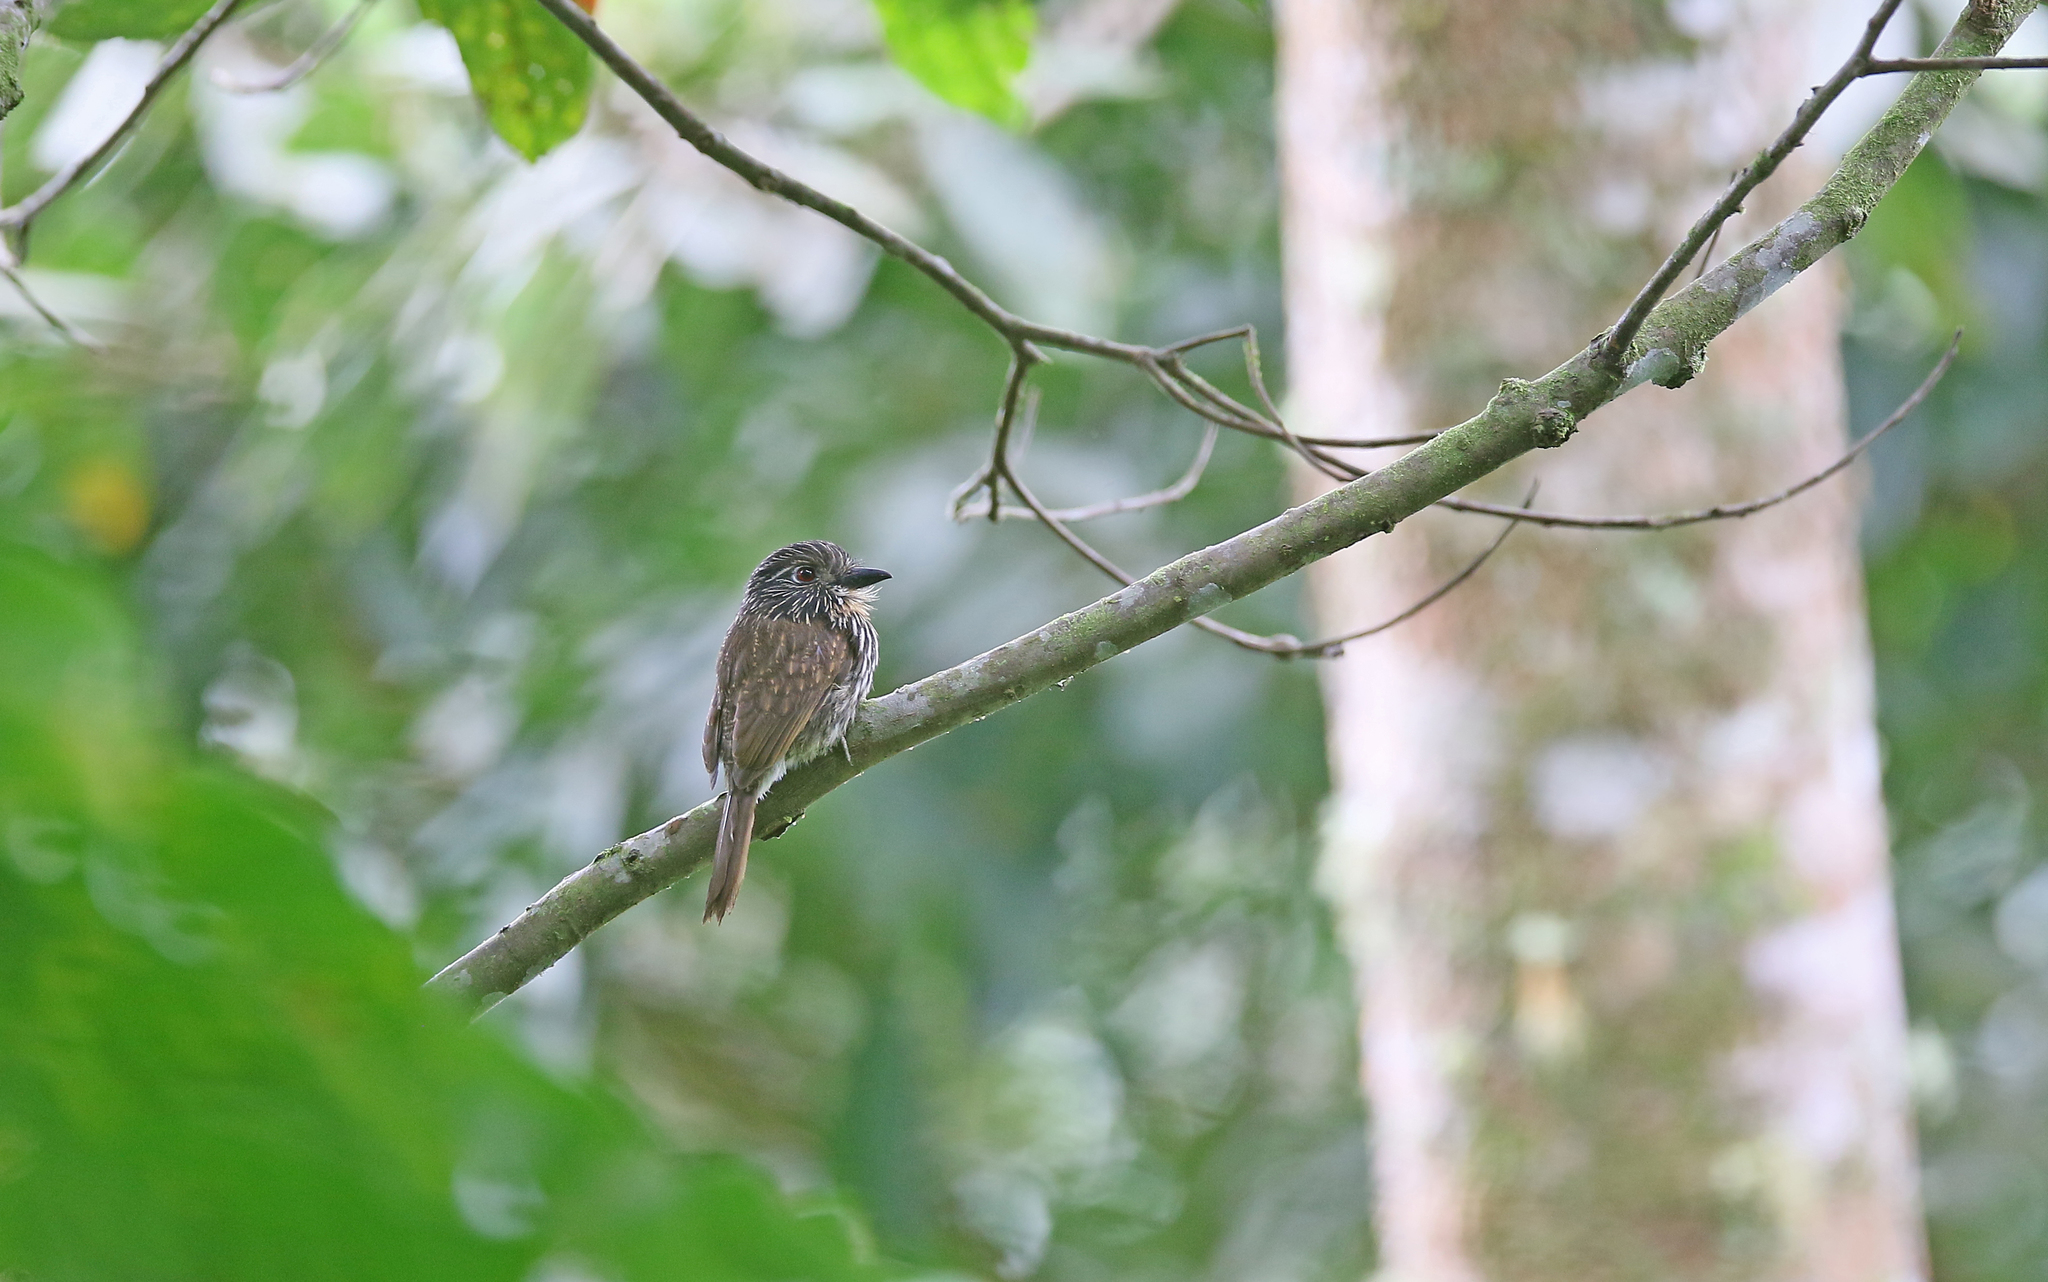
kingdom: Animalia
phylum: Chordata
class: Aves
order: Piciformes
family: Bucconidae
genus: Malacoptila
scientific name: Malacoptila fulvogularis
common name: Black-streaked puffbird
